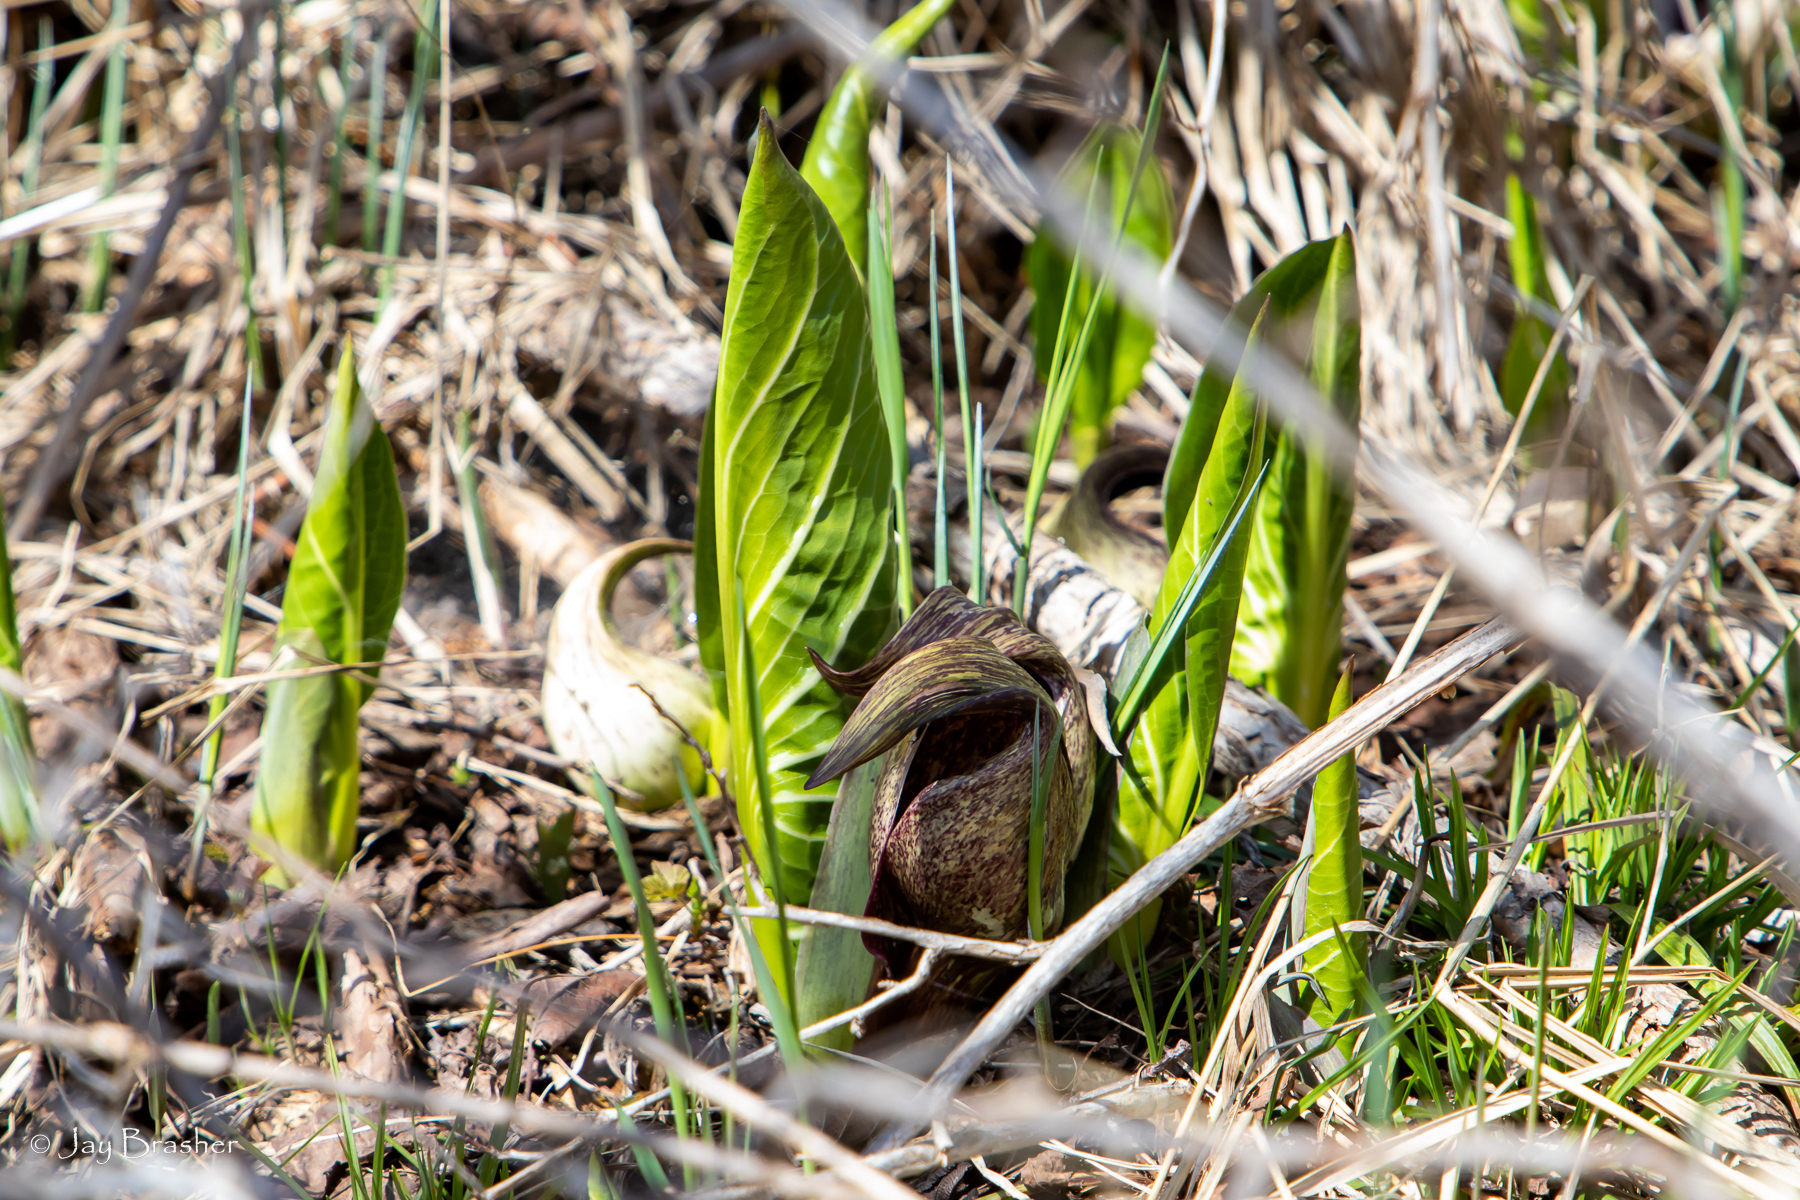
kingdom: Plantae
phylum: Tracheophyta
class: Liliopsida
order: Alismatales
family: Araceae
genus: Symplocarpus
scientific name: Symplocarpus foetidus
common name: Eastern skunk cabbage
